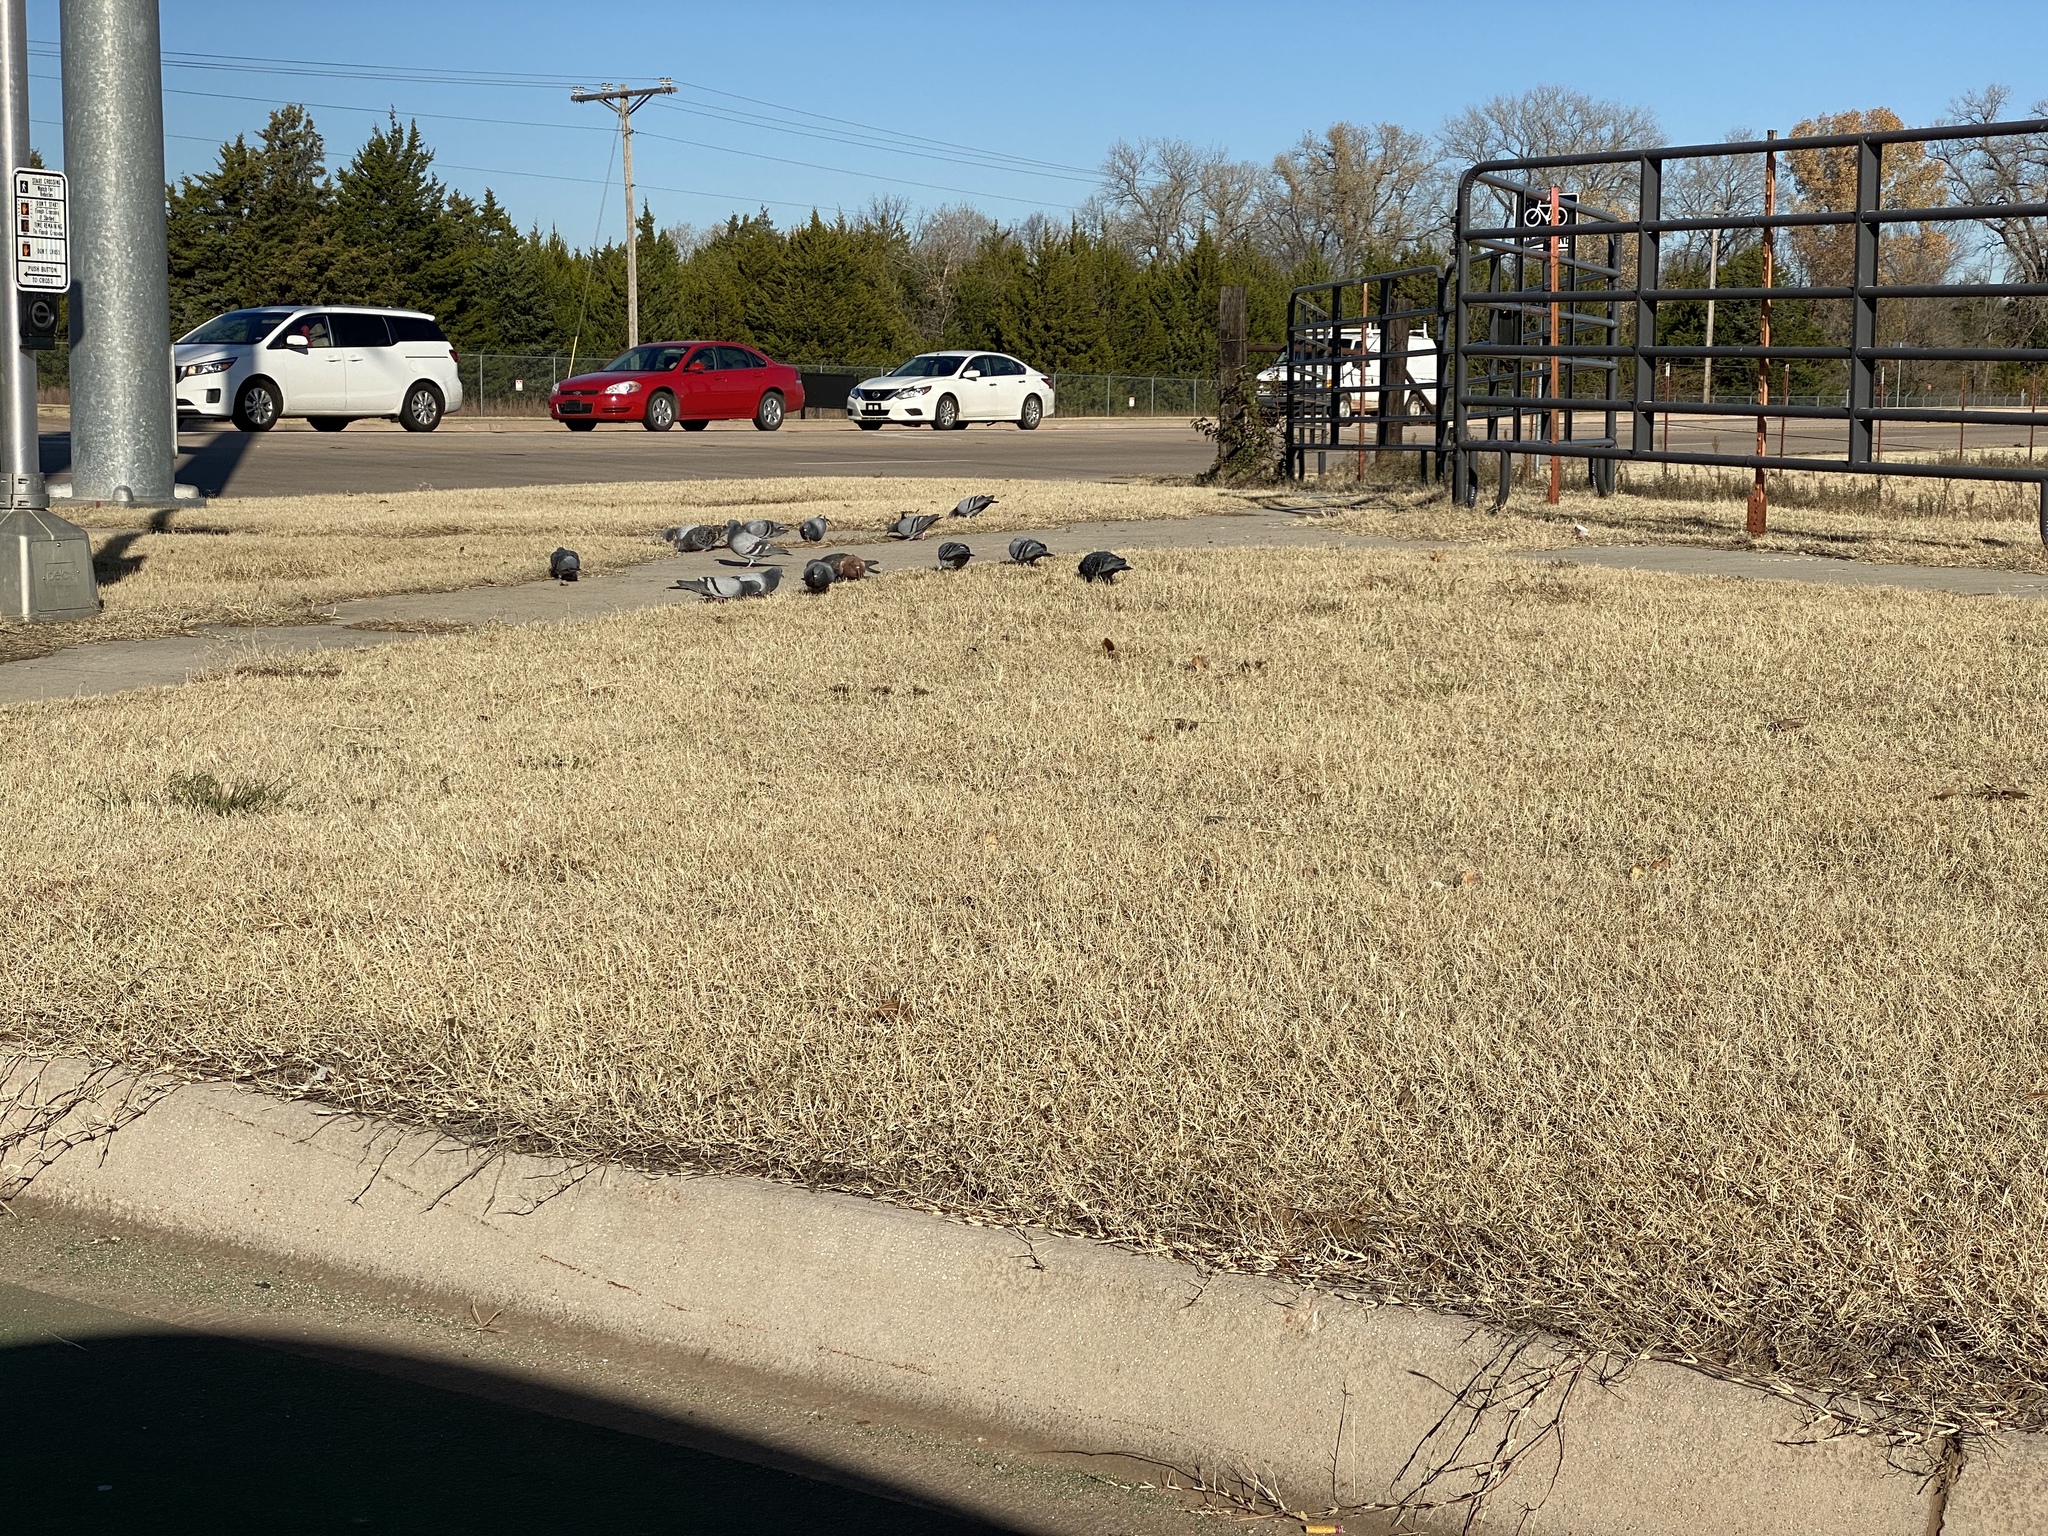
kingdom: Animalia
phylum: Chordata
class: Aves
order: Columbiformes
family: Columbidae
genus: Columba
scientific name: Columba livia
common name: Rock pigeon
